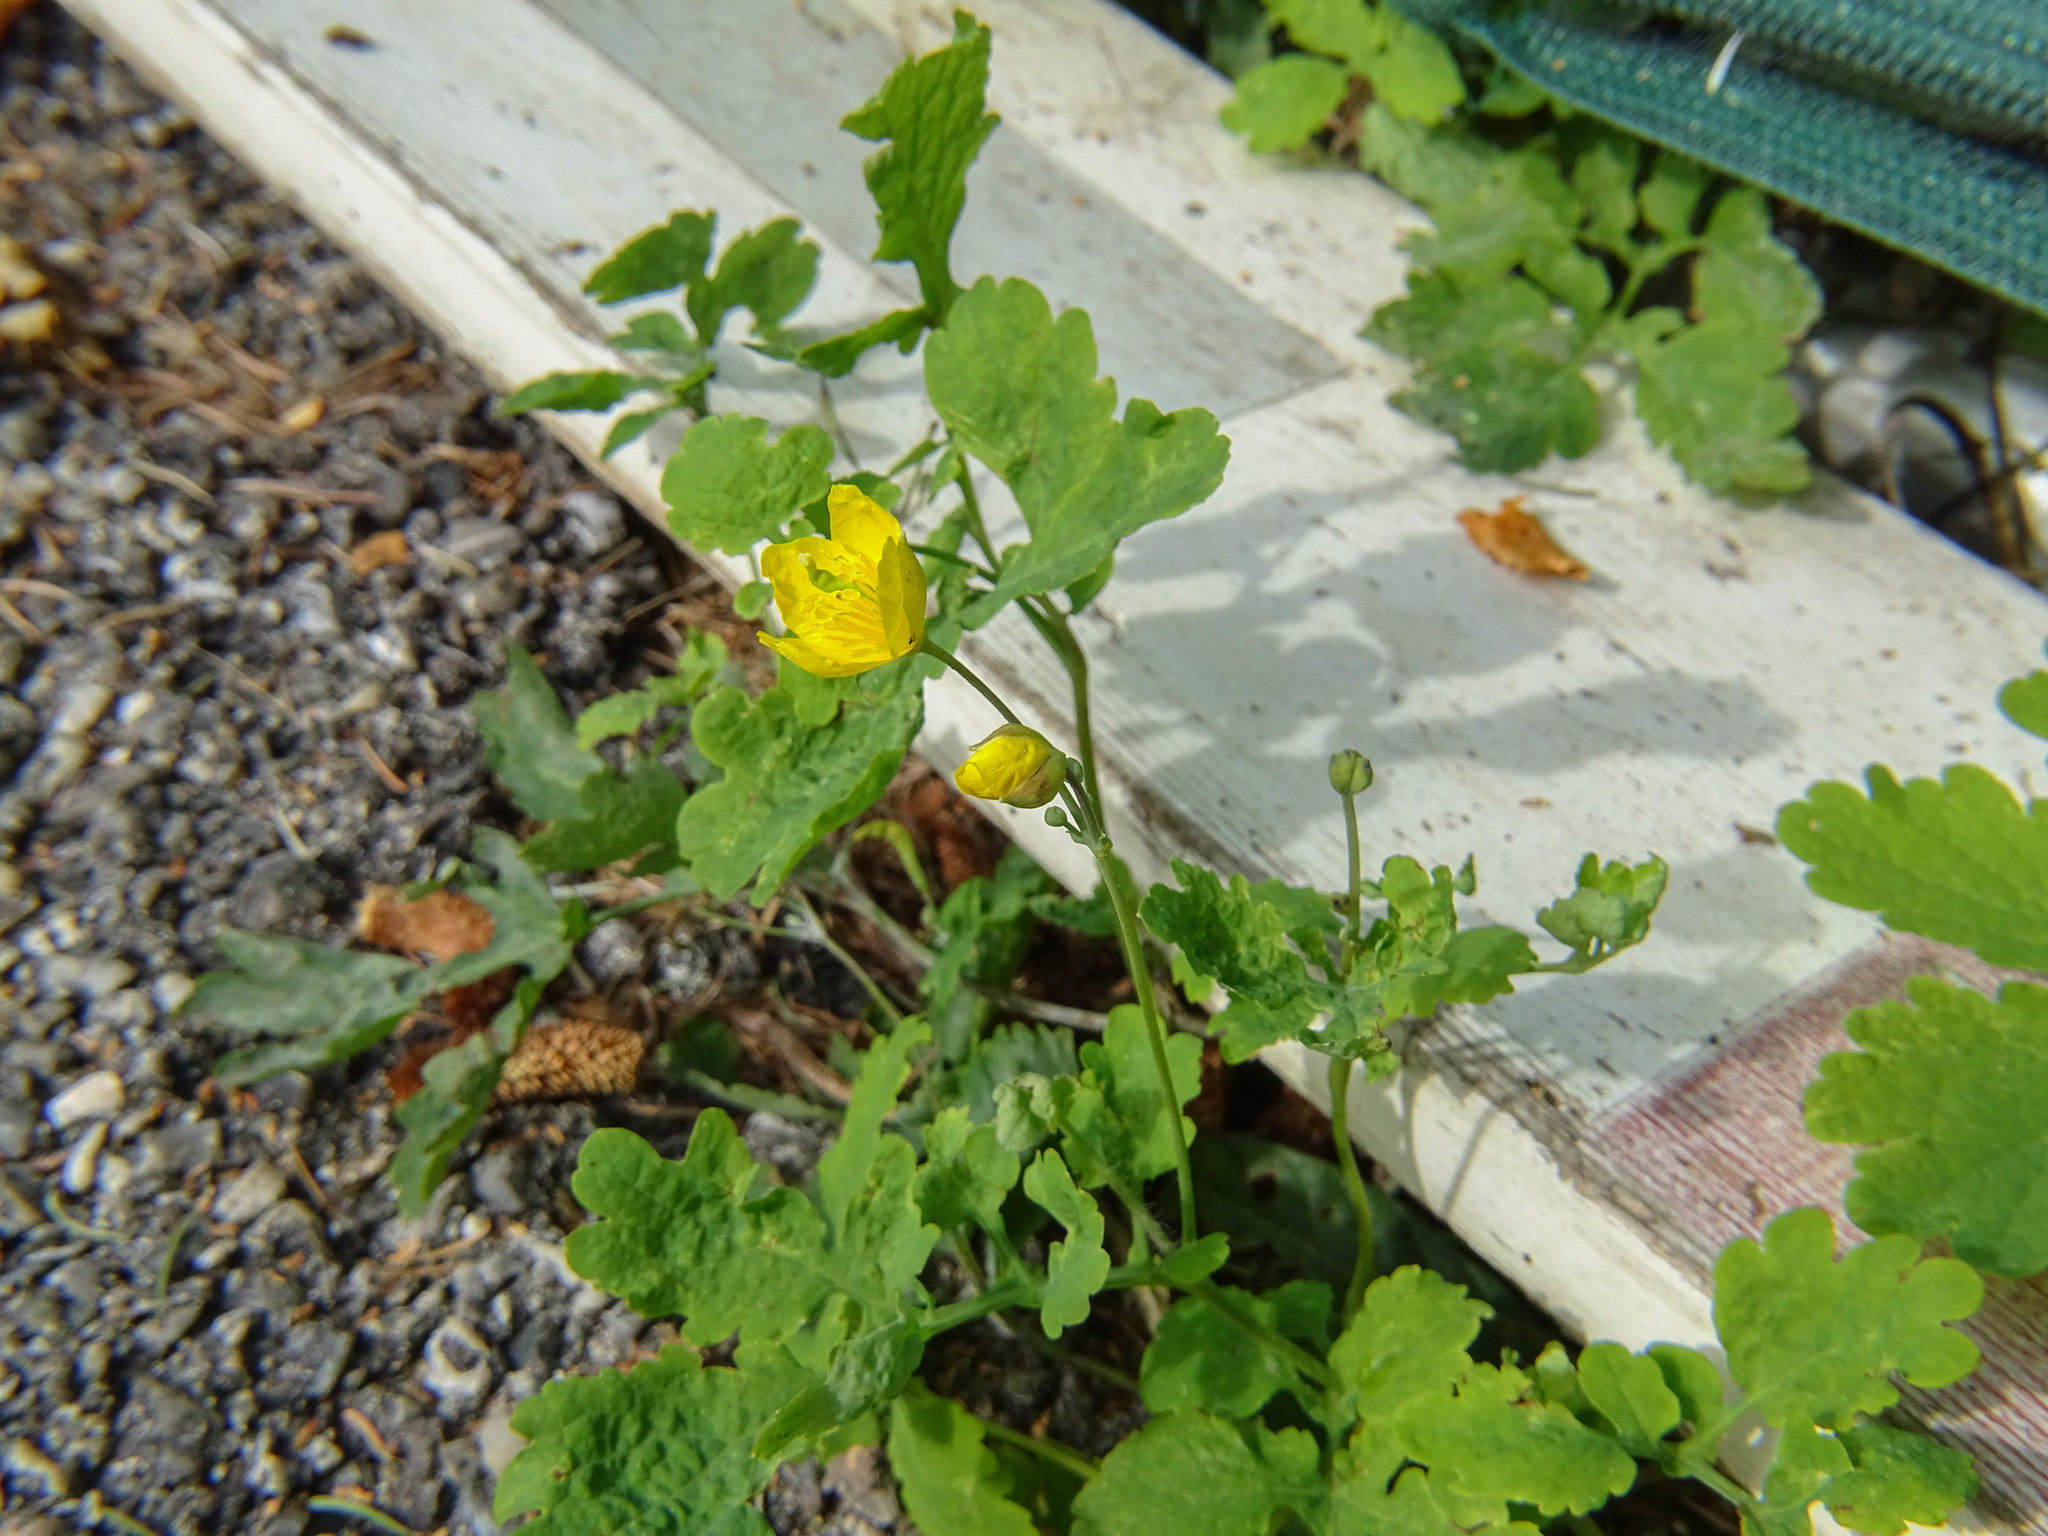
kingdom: Plantae
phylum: Tracheophyta
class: Magnoliopsida
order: Ranunculales
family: Papaveraceae
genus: Chelidonium
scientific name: Chelidonium majus
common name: Greater celandine
